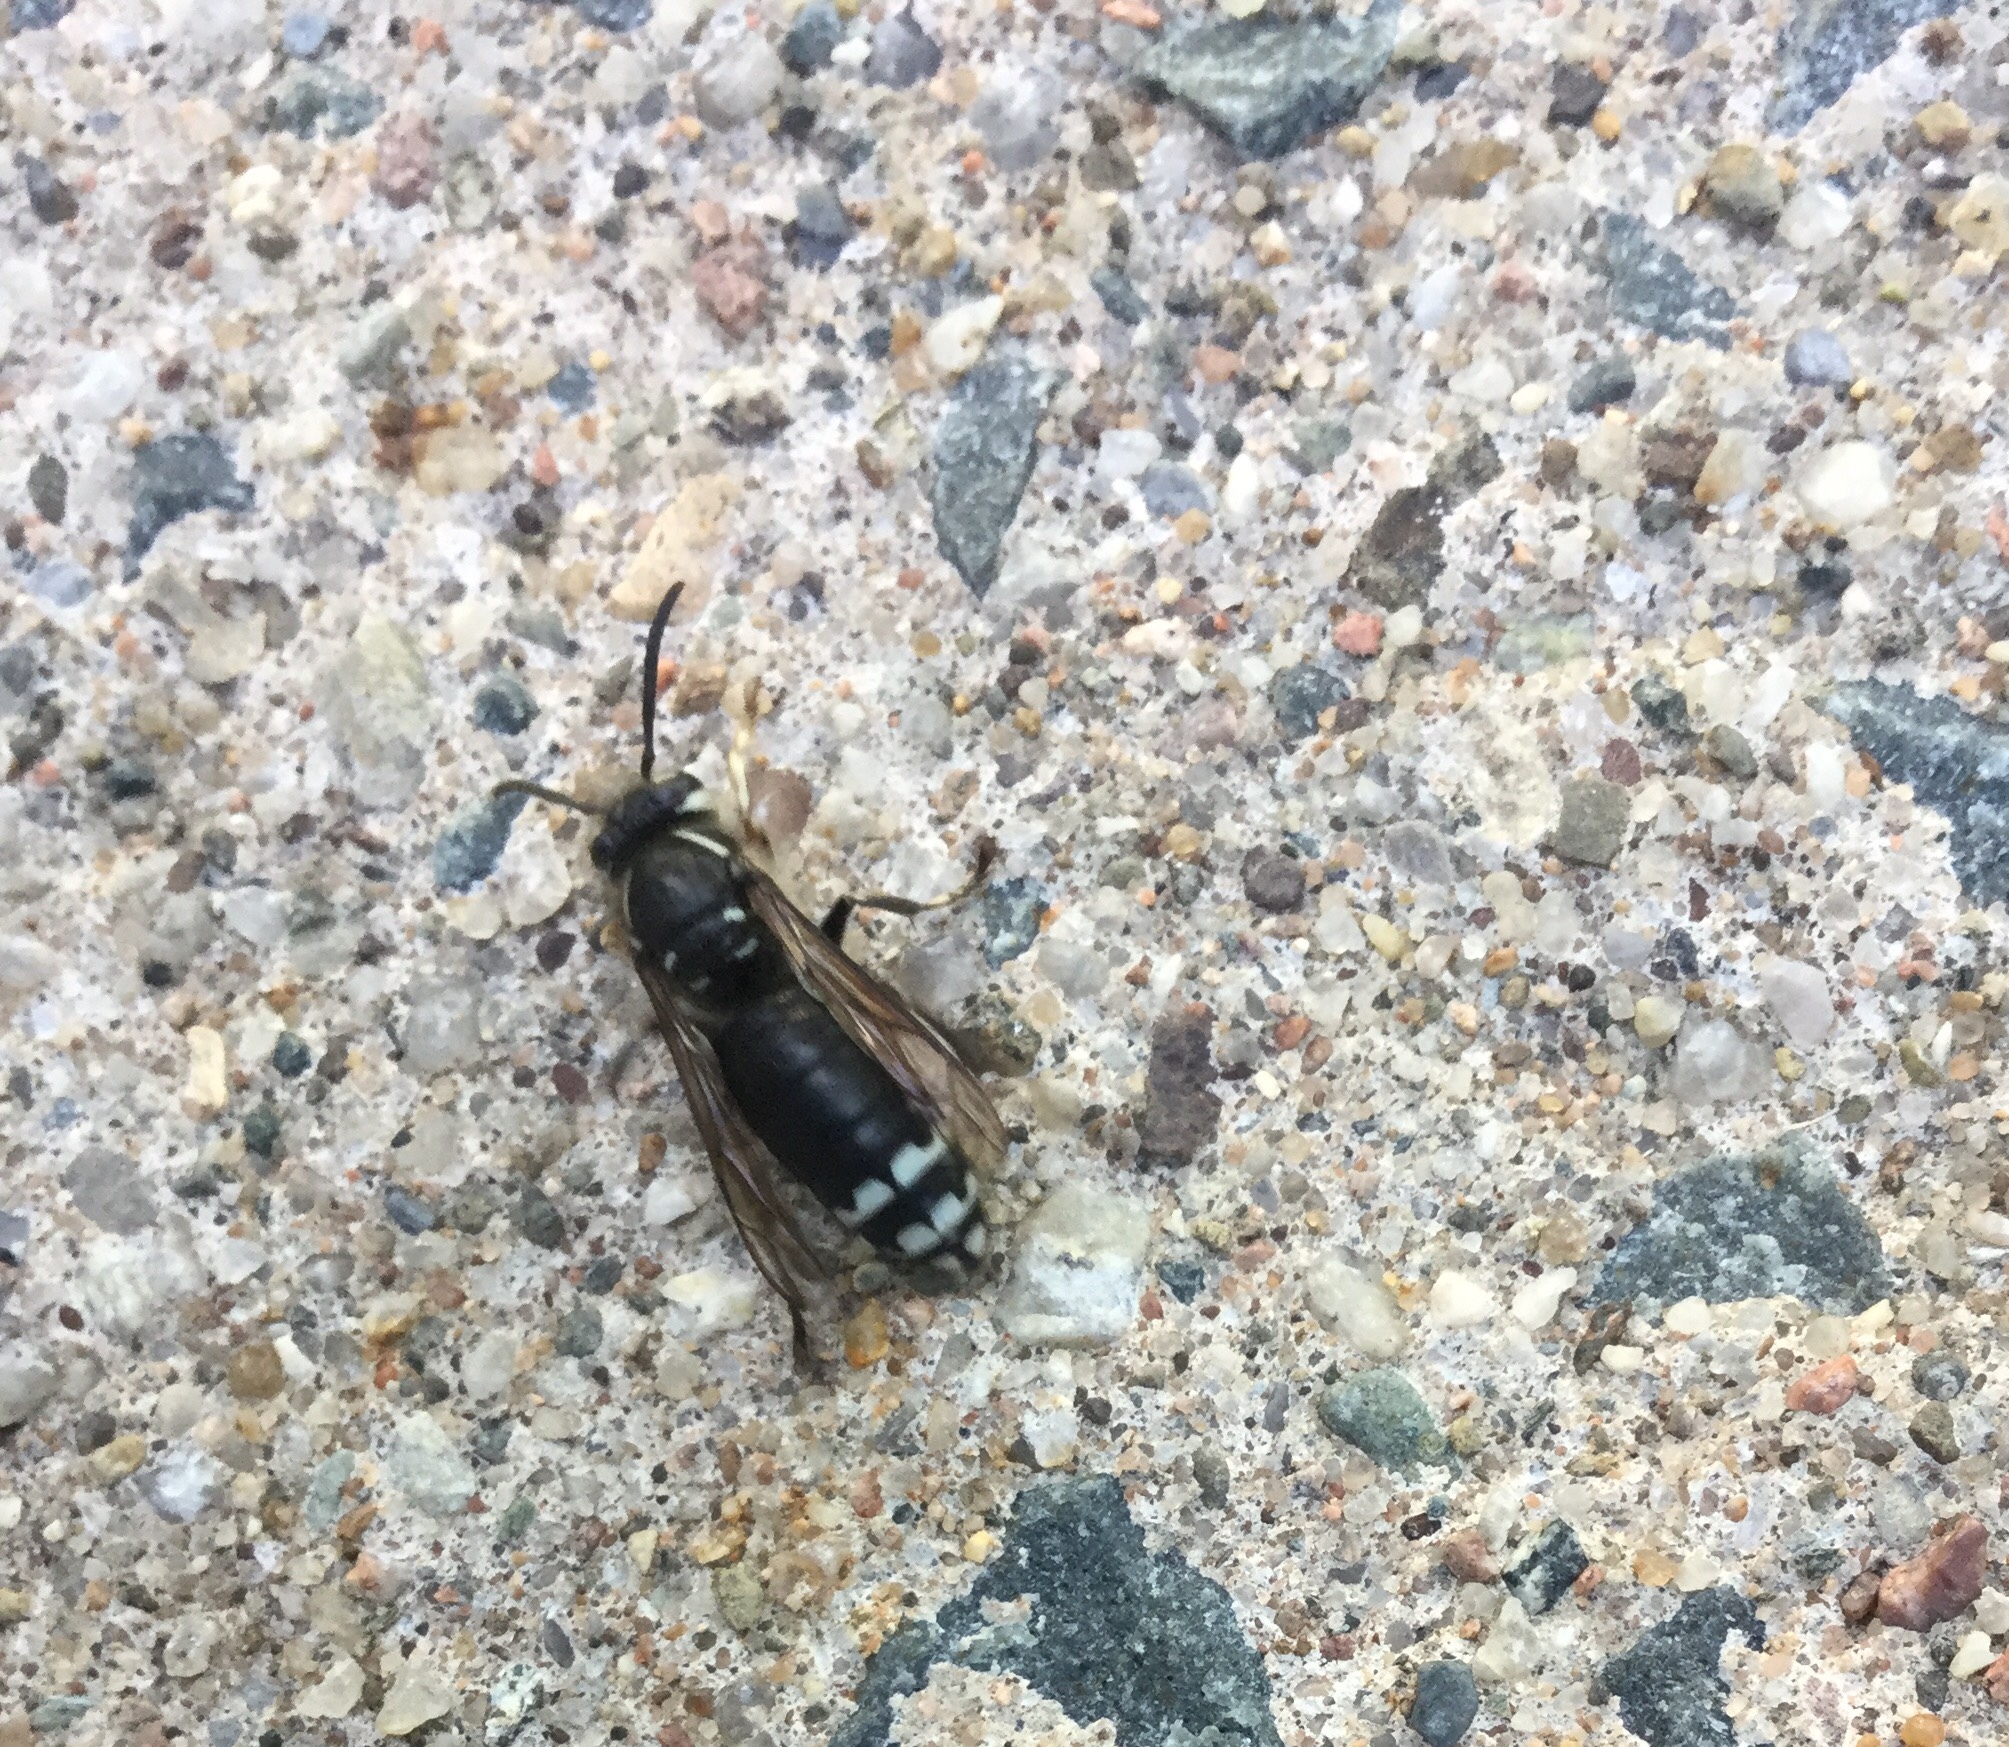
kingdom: Animalia
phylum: Arthropoda
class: Insecta
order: Hymenoptera
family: Vespidae
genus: Dolichovespula
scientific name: Dolichovespula maculata
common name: Bald-faced hornet
